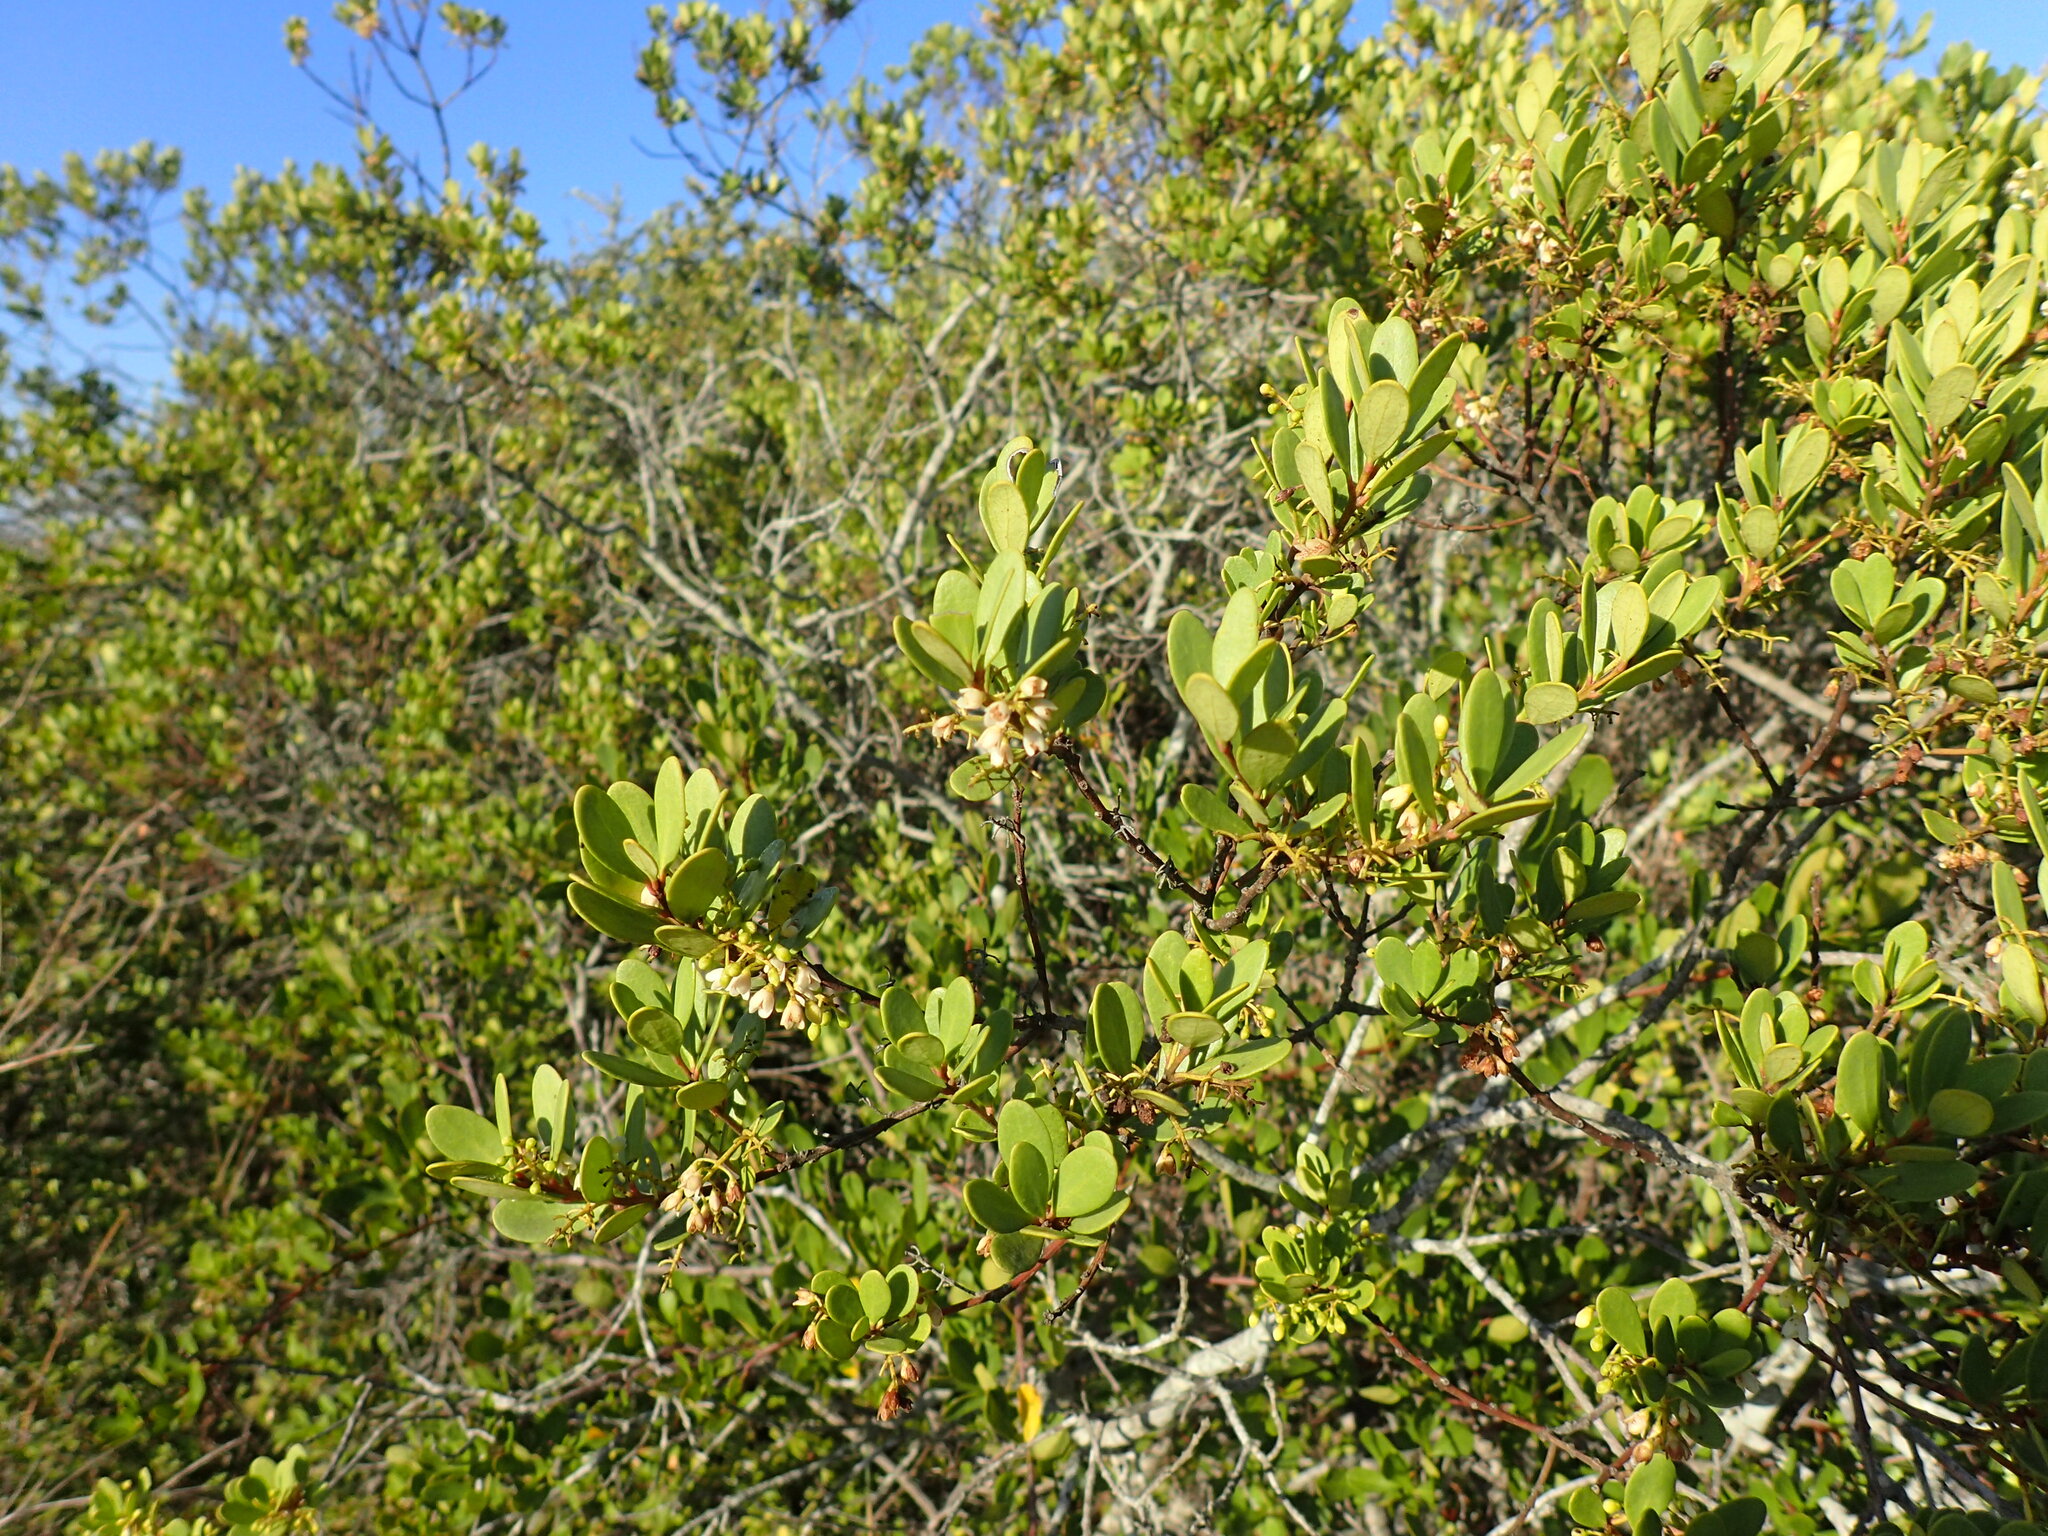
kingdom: Plantae
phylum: Tracheophyta
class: Magnoliopsida
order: Ericales
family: Ebenaceae
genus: Euclea
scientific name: Euclea racemosa
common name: Dune guarri
